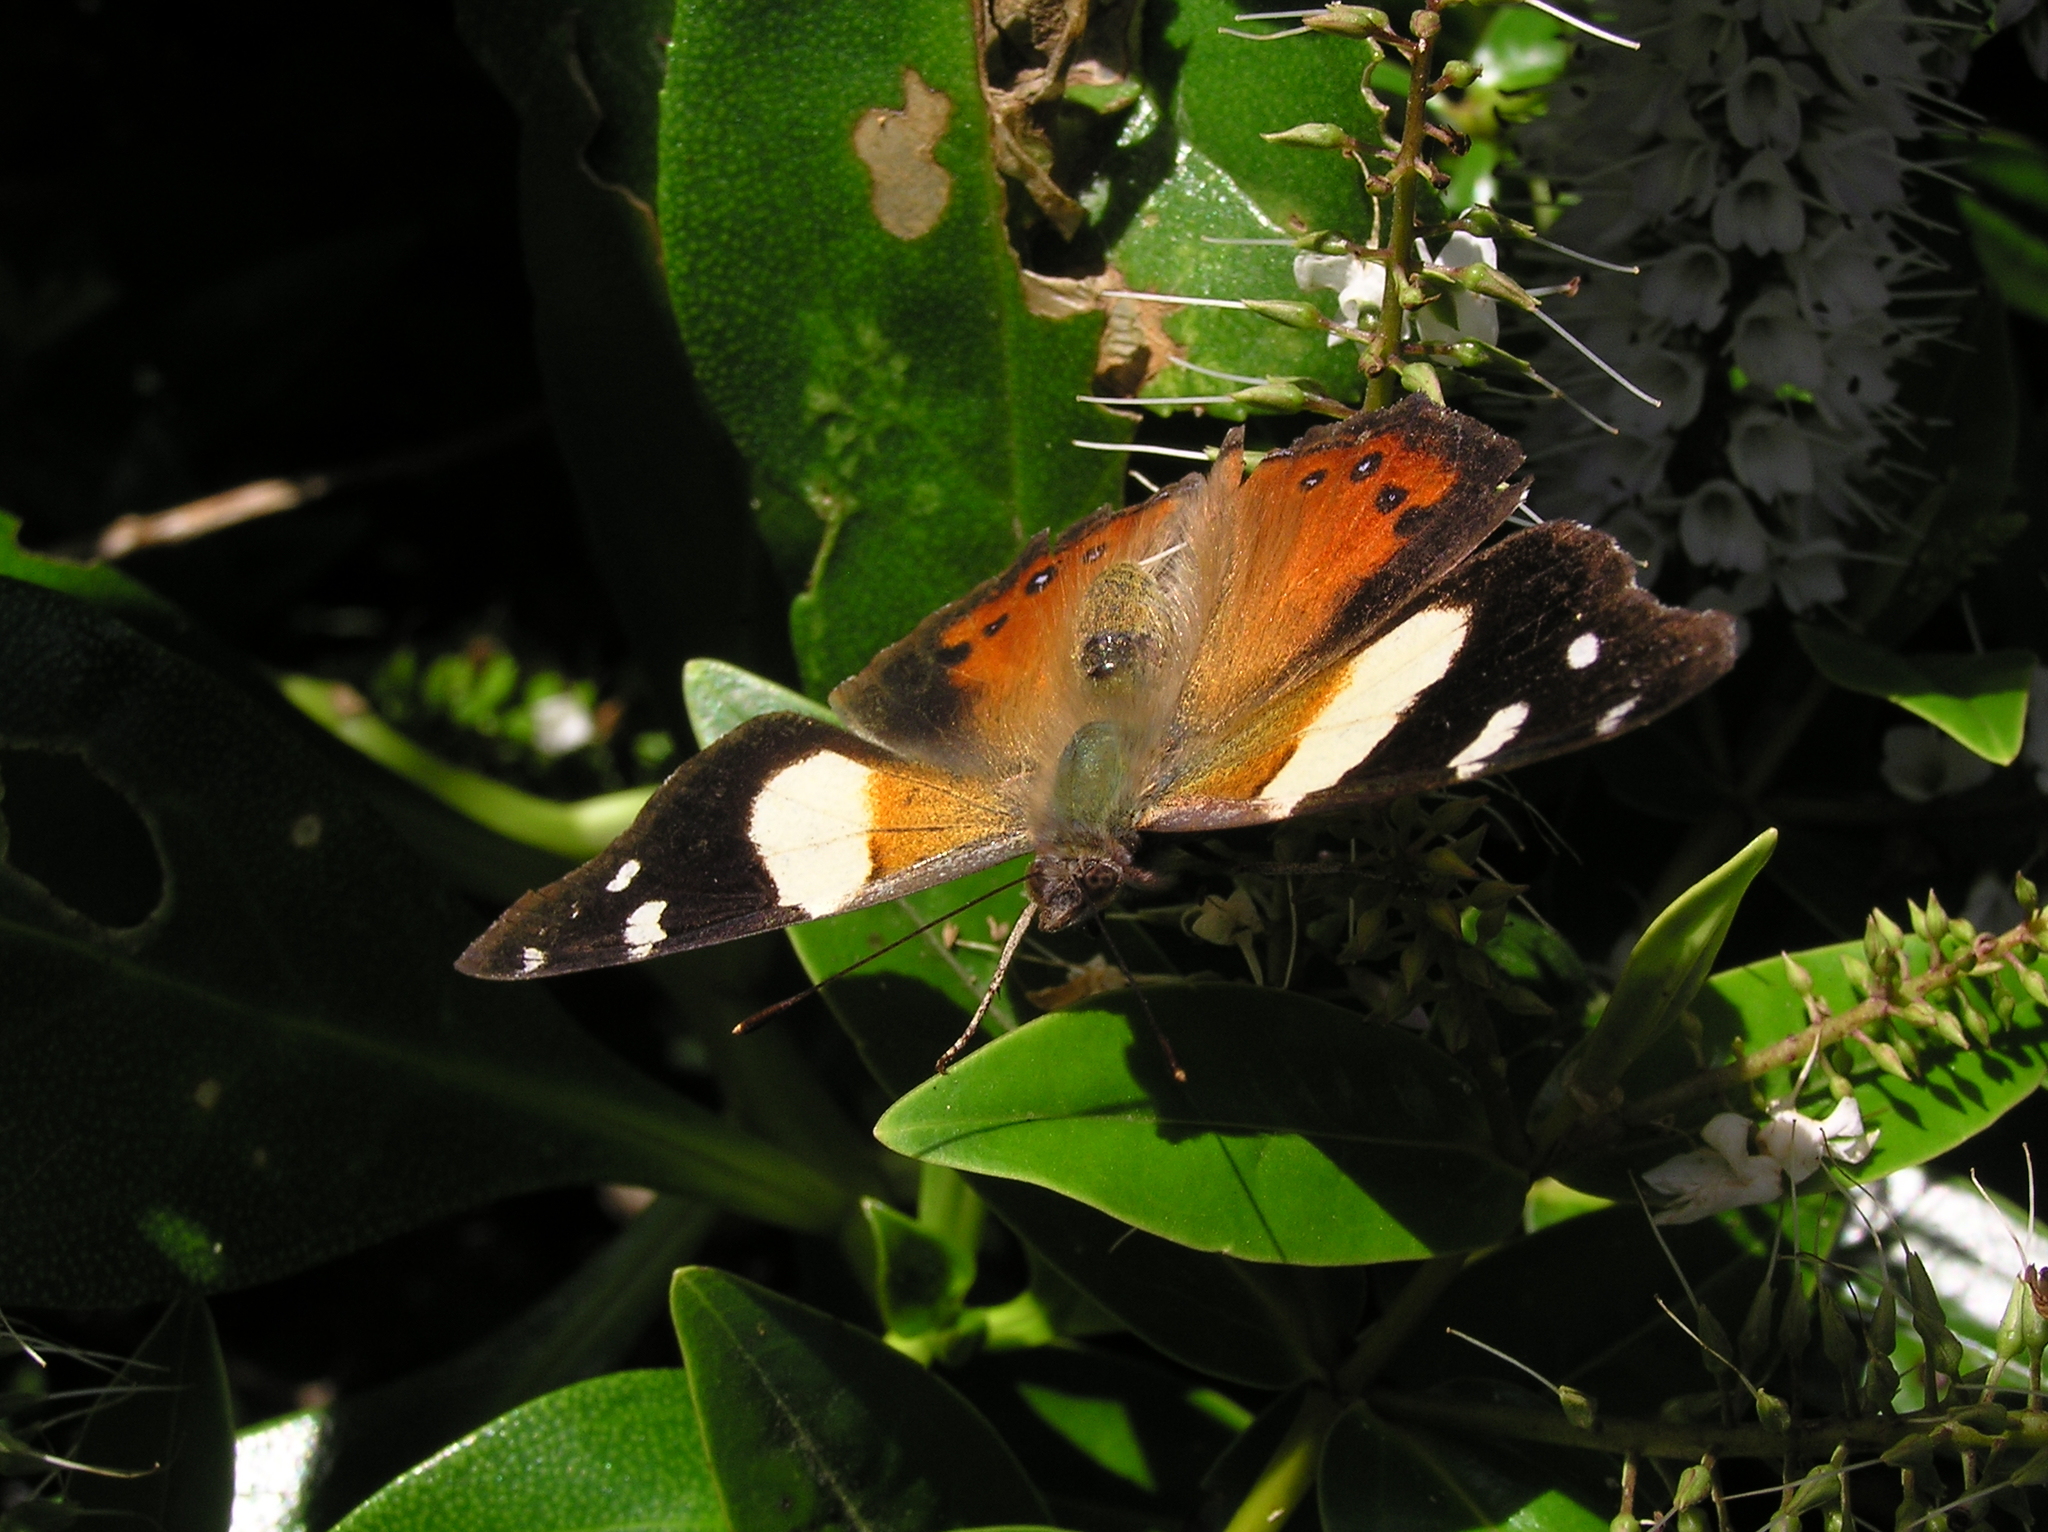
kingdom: Animalia
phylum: Arthropoda
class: Insecta
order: Lepidoptera
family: Nymphalidae
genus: Vanessa
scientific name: Vanessa itea
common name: Yellow admiral
